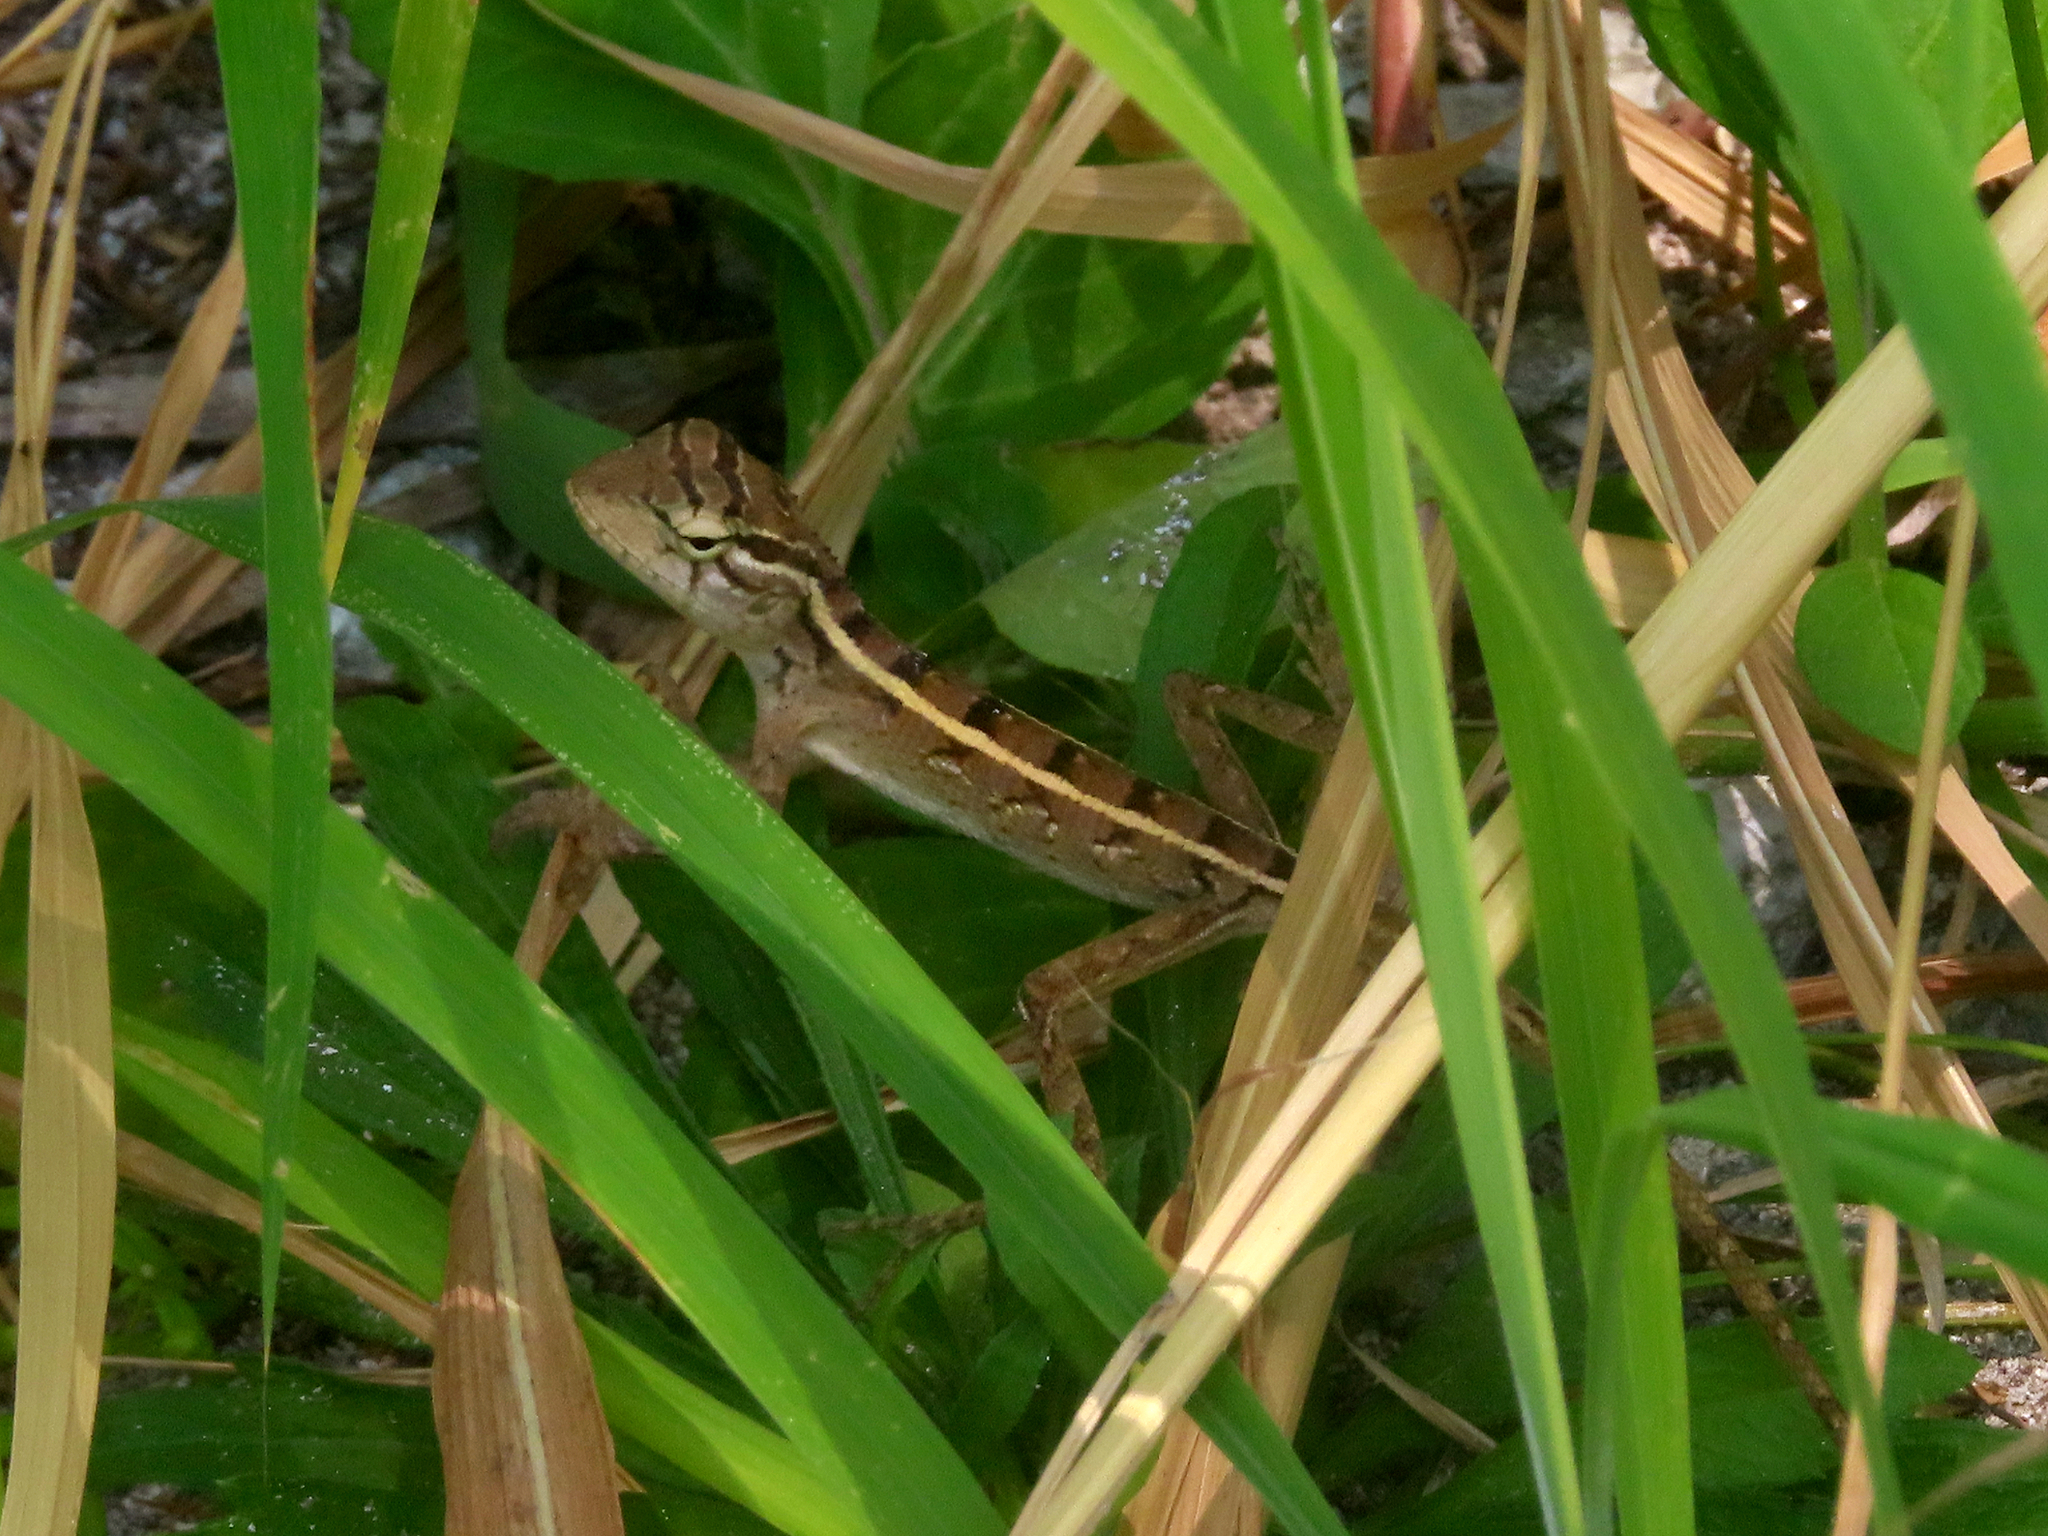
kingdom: Animalia
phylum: Chordata
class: Squamata
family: Agamidae
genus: Calotes
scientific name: Calotes versicolor
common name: Oriental garden lizard
